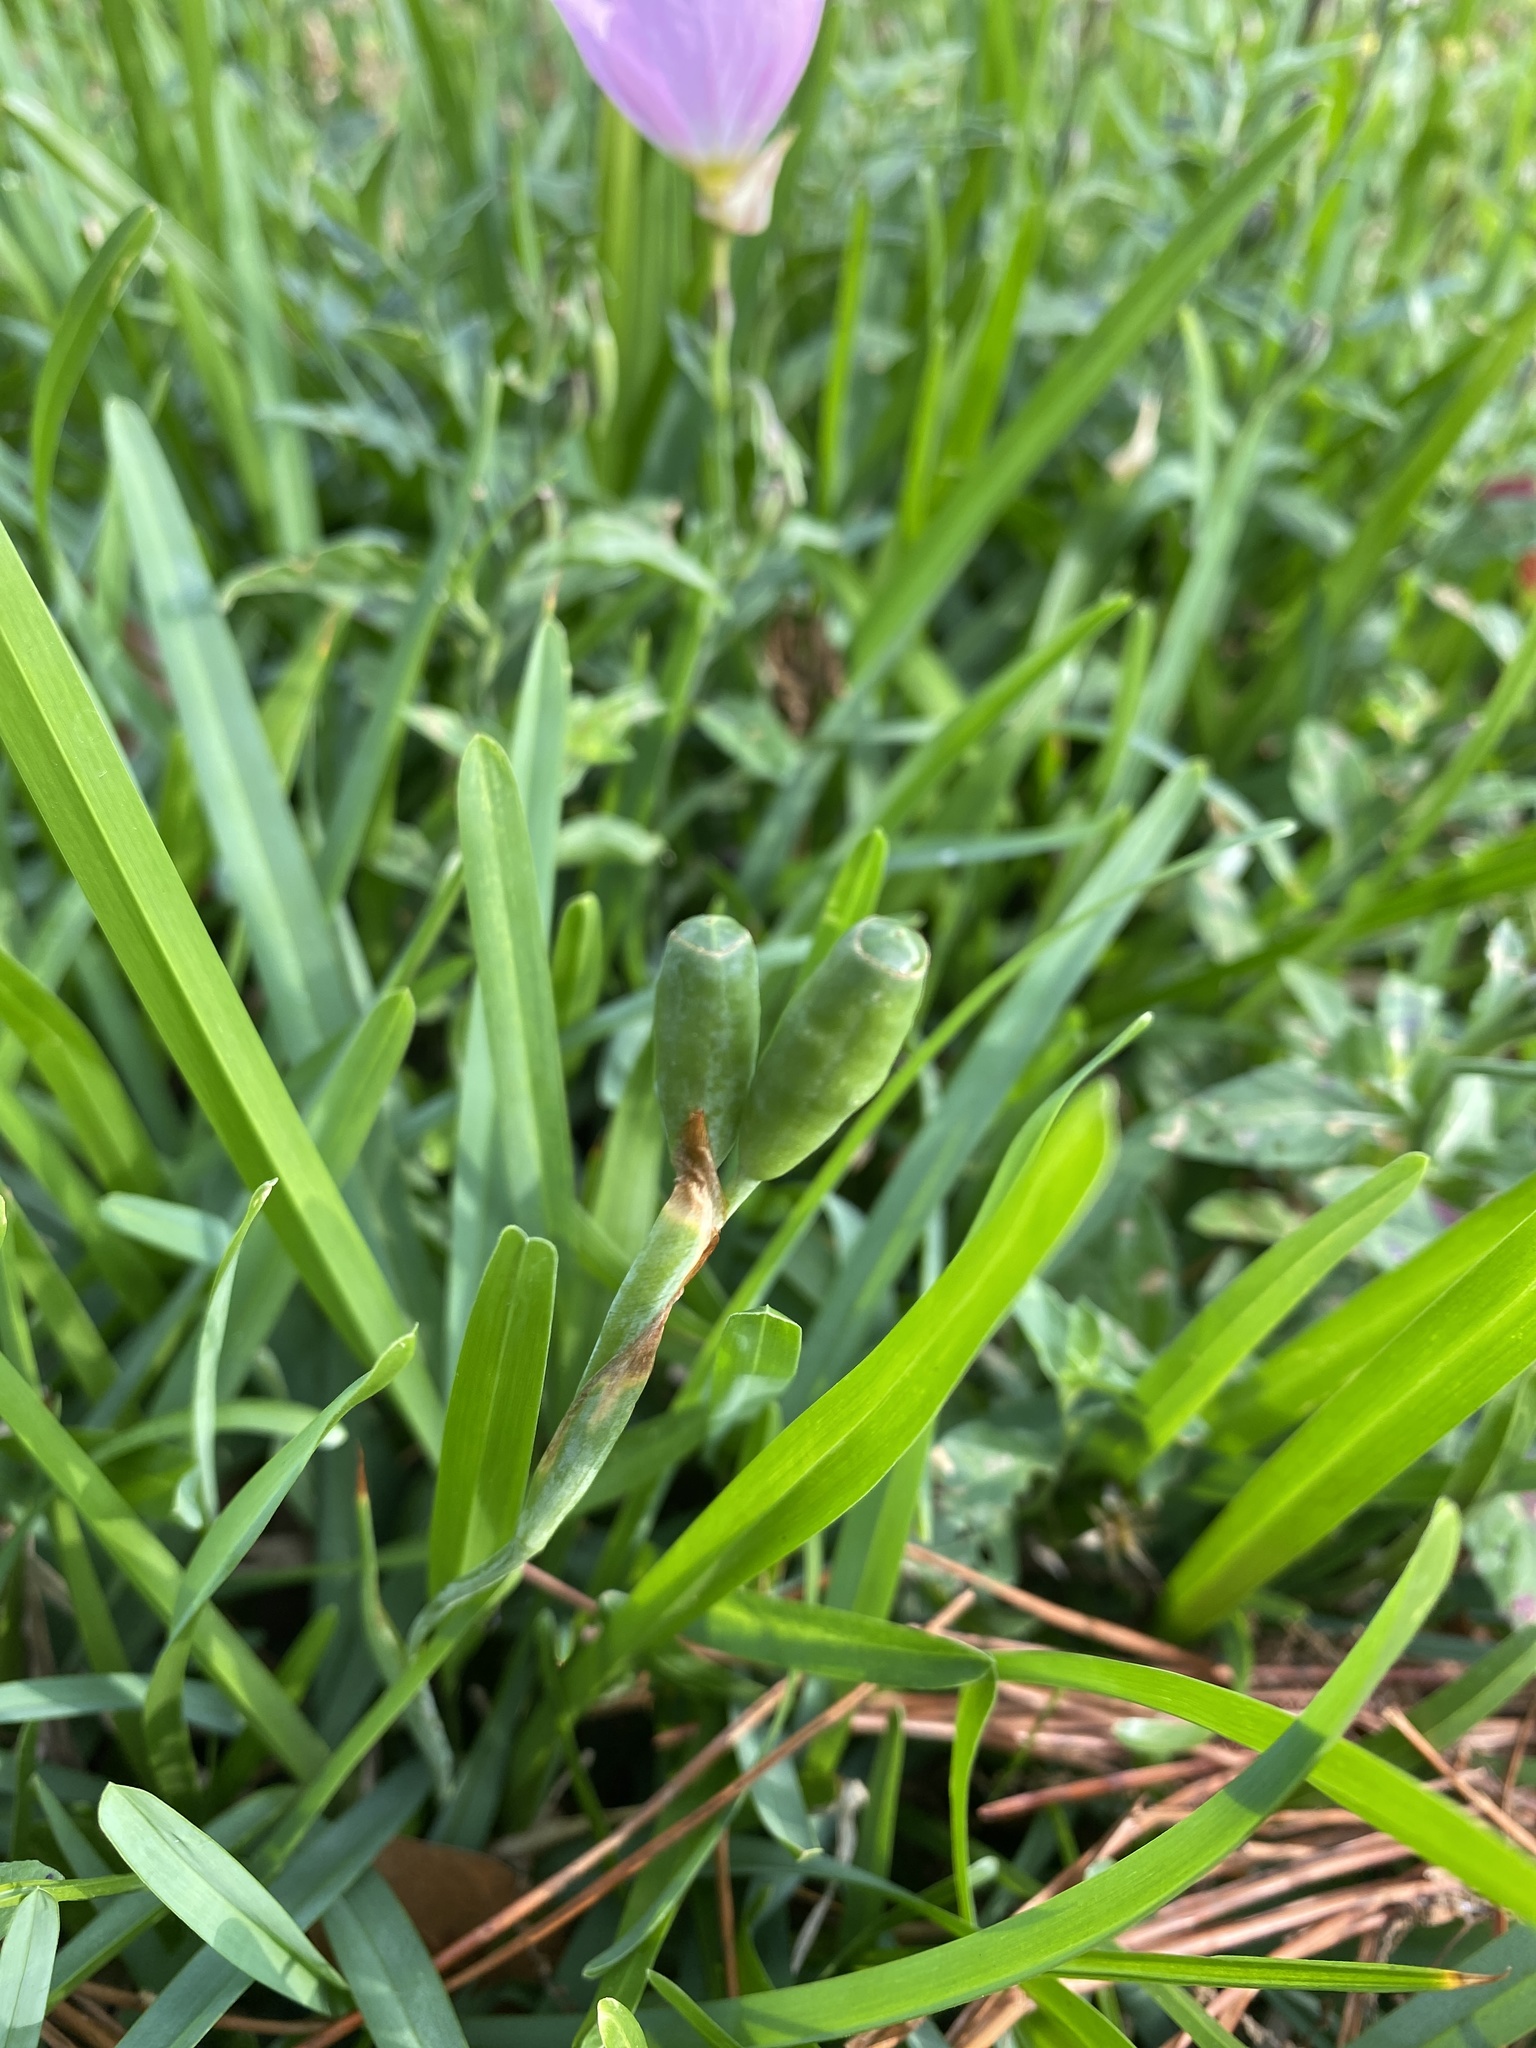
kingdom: Plantae
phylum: Tracheophyta
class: Liliopsida
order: Asparagales
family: Iridaceae
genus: Herbertia
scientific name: Herbertia lahue
